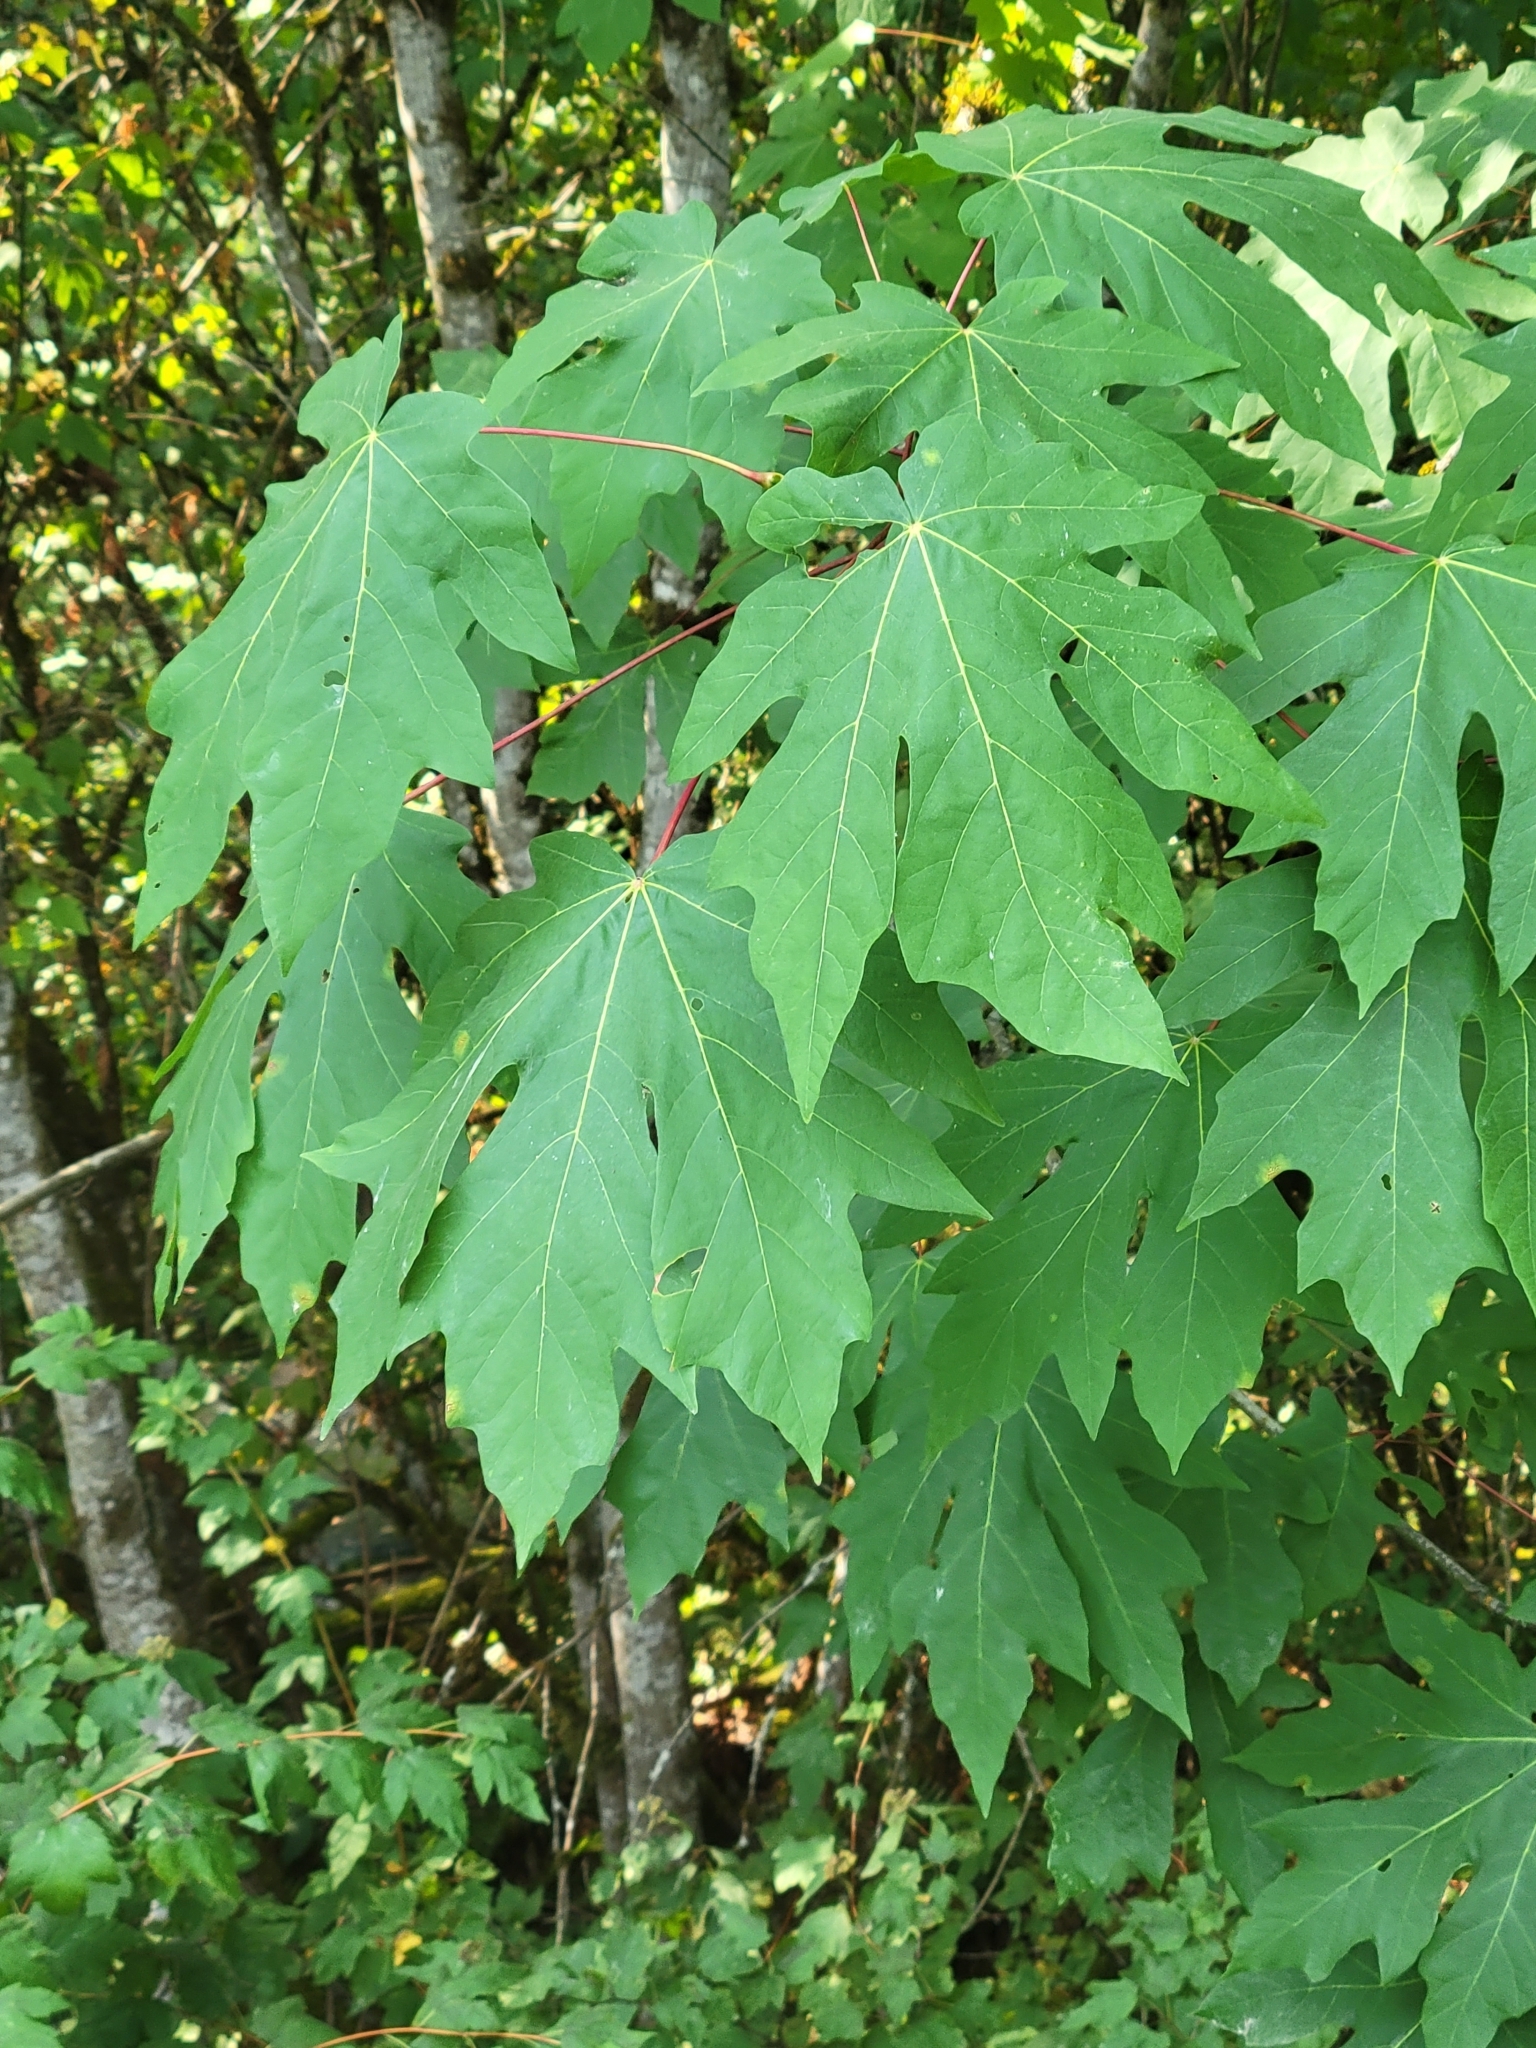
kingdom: Plantae
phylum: Tracheophyta
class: Magnoliopsida
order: Sapindales
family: Sapindaceae
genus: Acer
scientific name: Acer macrophyllum
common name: Oregon maple
